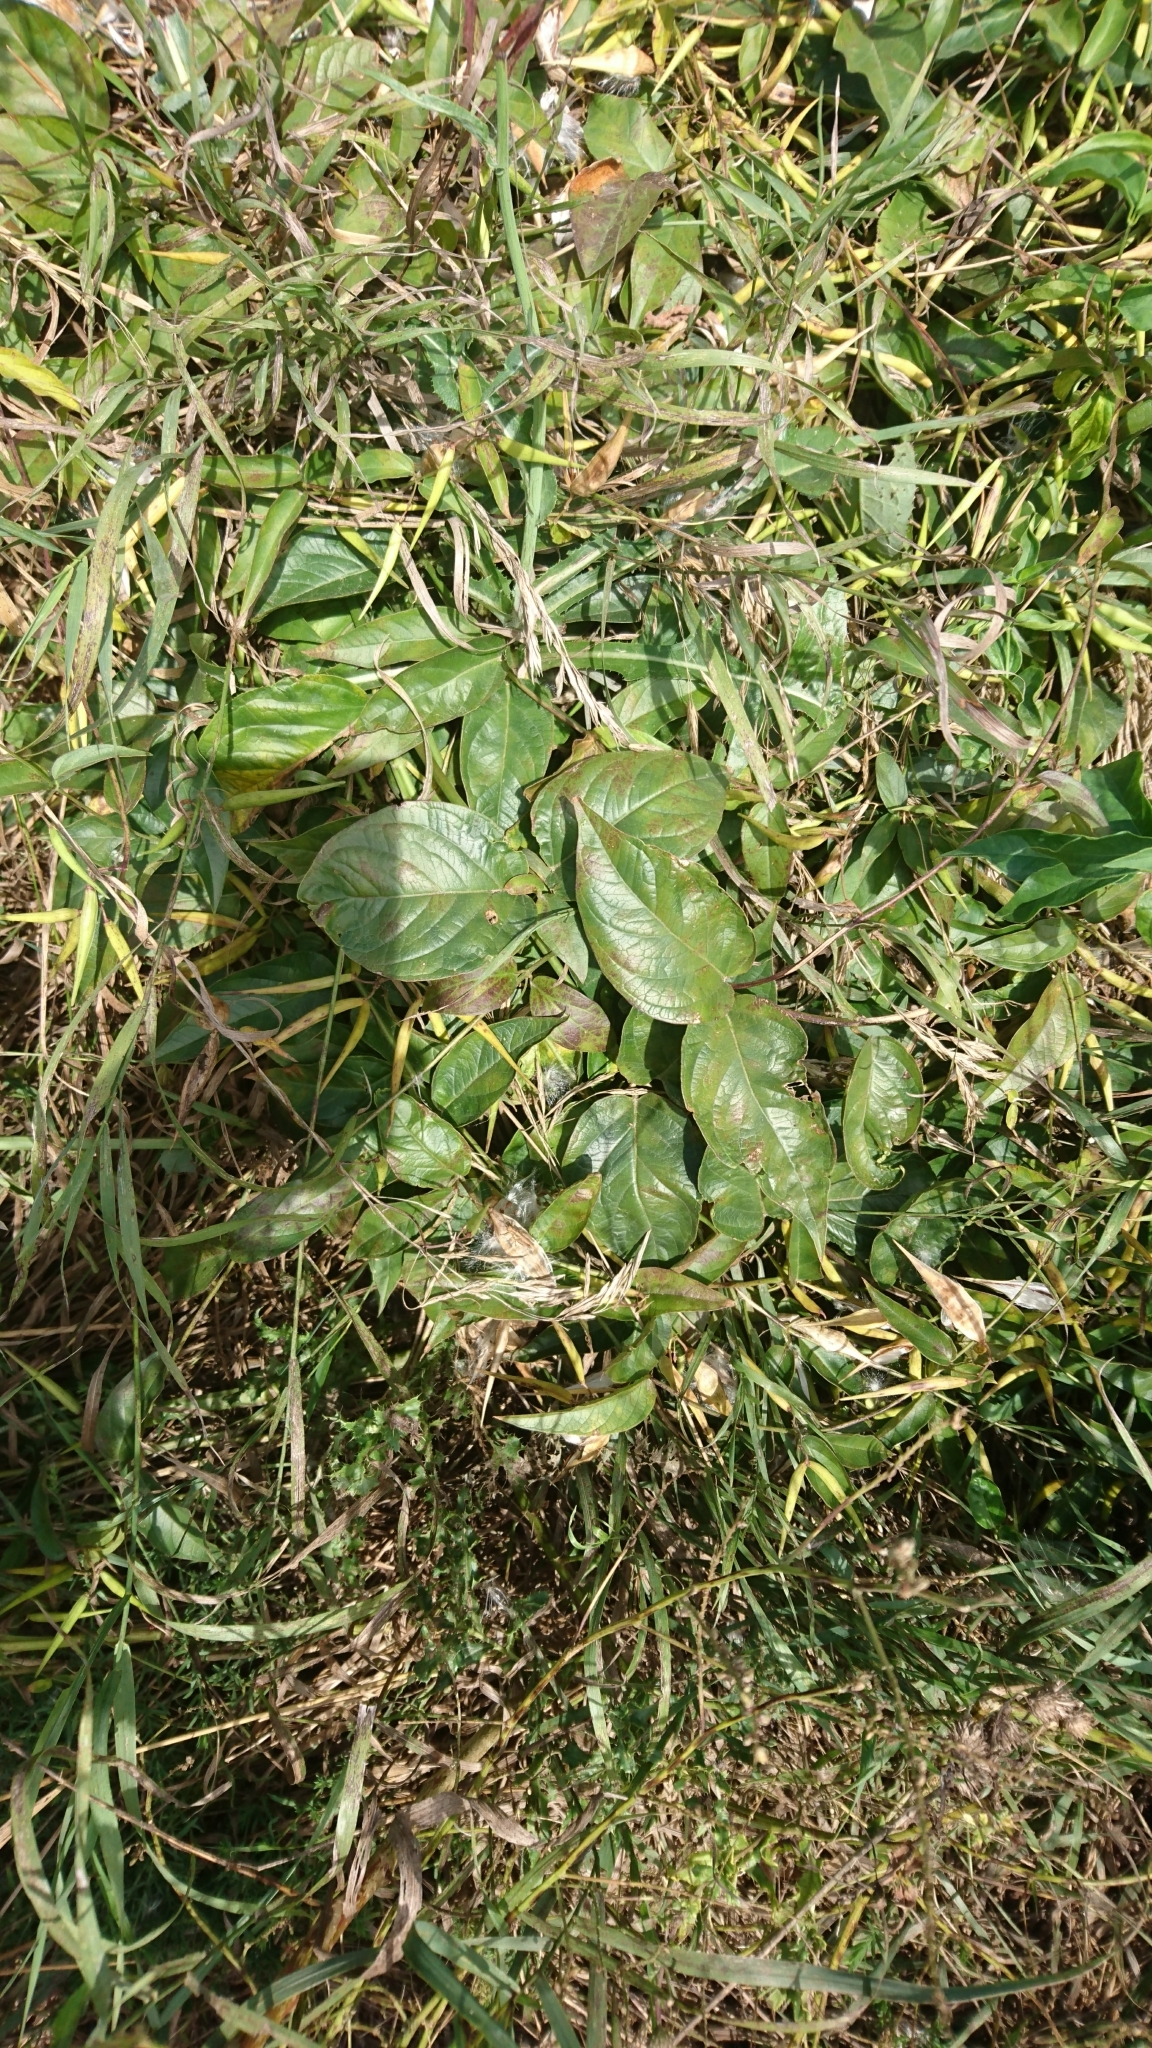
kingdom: Plantae
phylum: Tracheophyta
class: Magnoliopsida
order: Gentianales
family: Apocynaceae
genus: Vincetoxicum
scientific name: Vincetoxicum rossicum
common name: Dog-strangling vine
